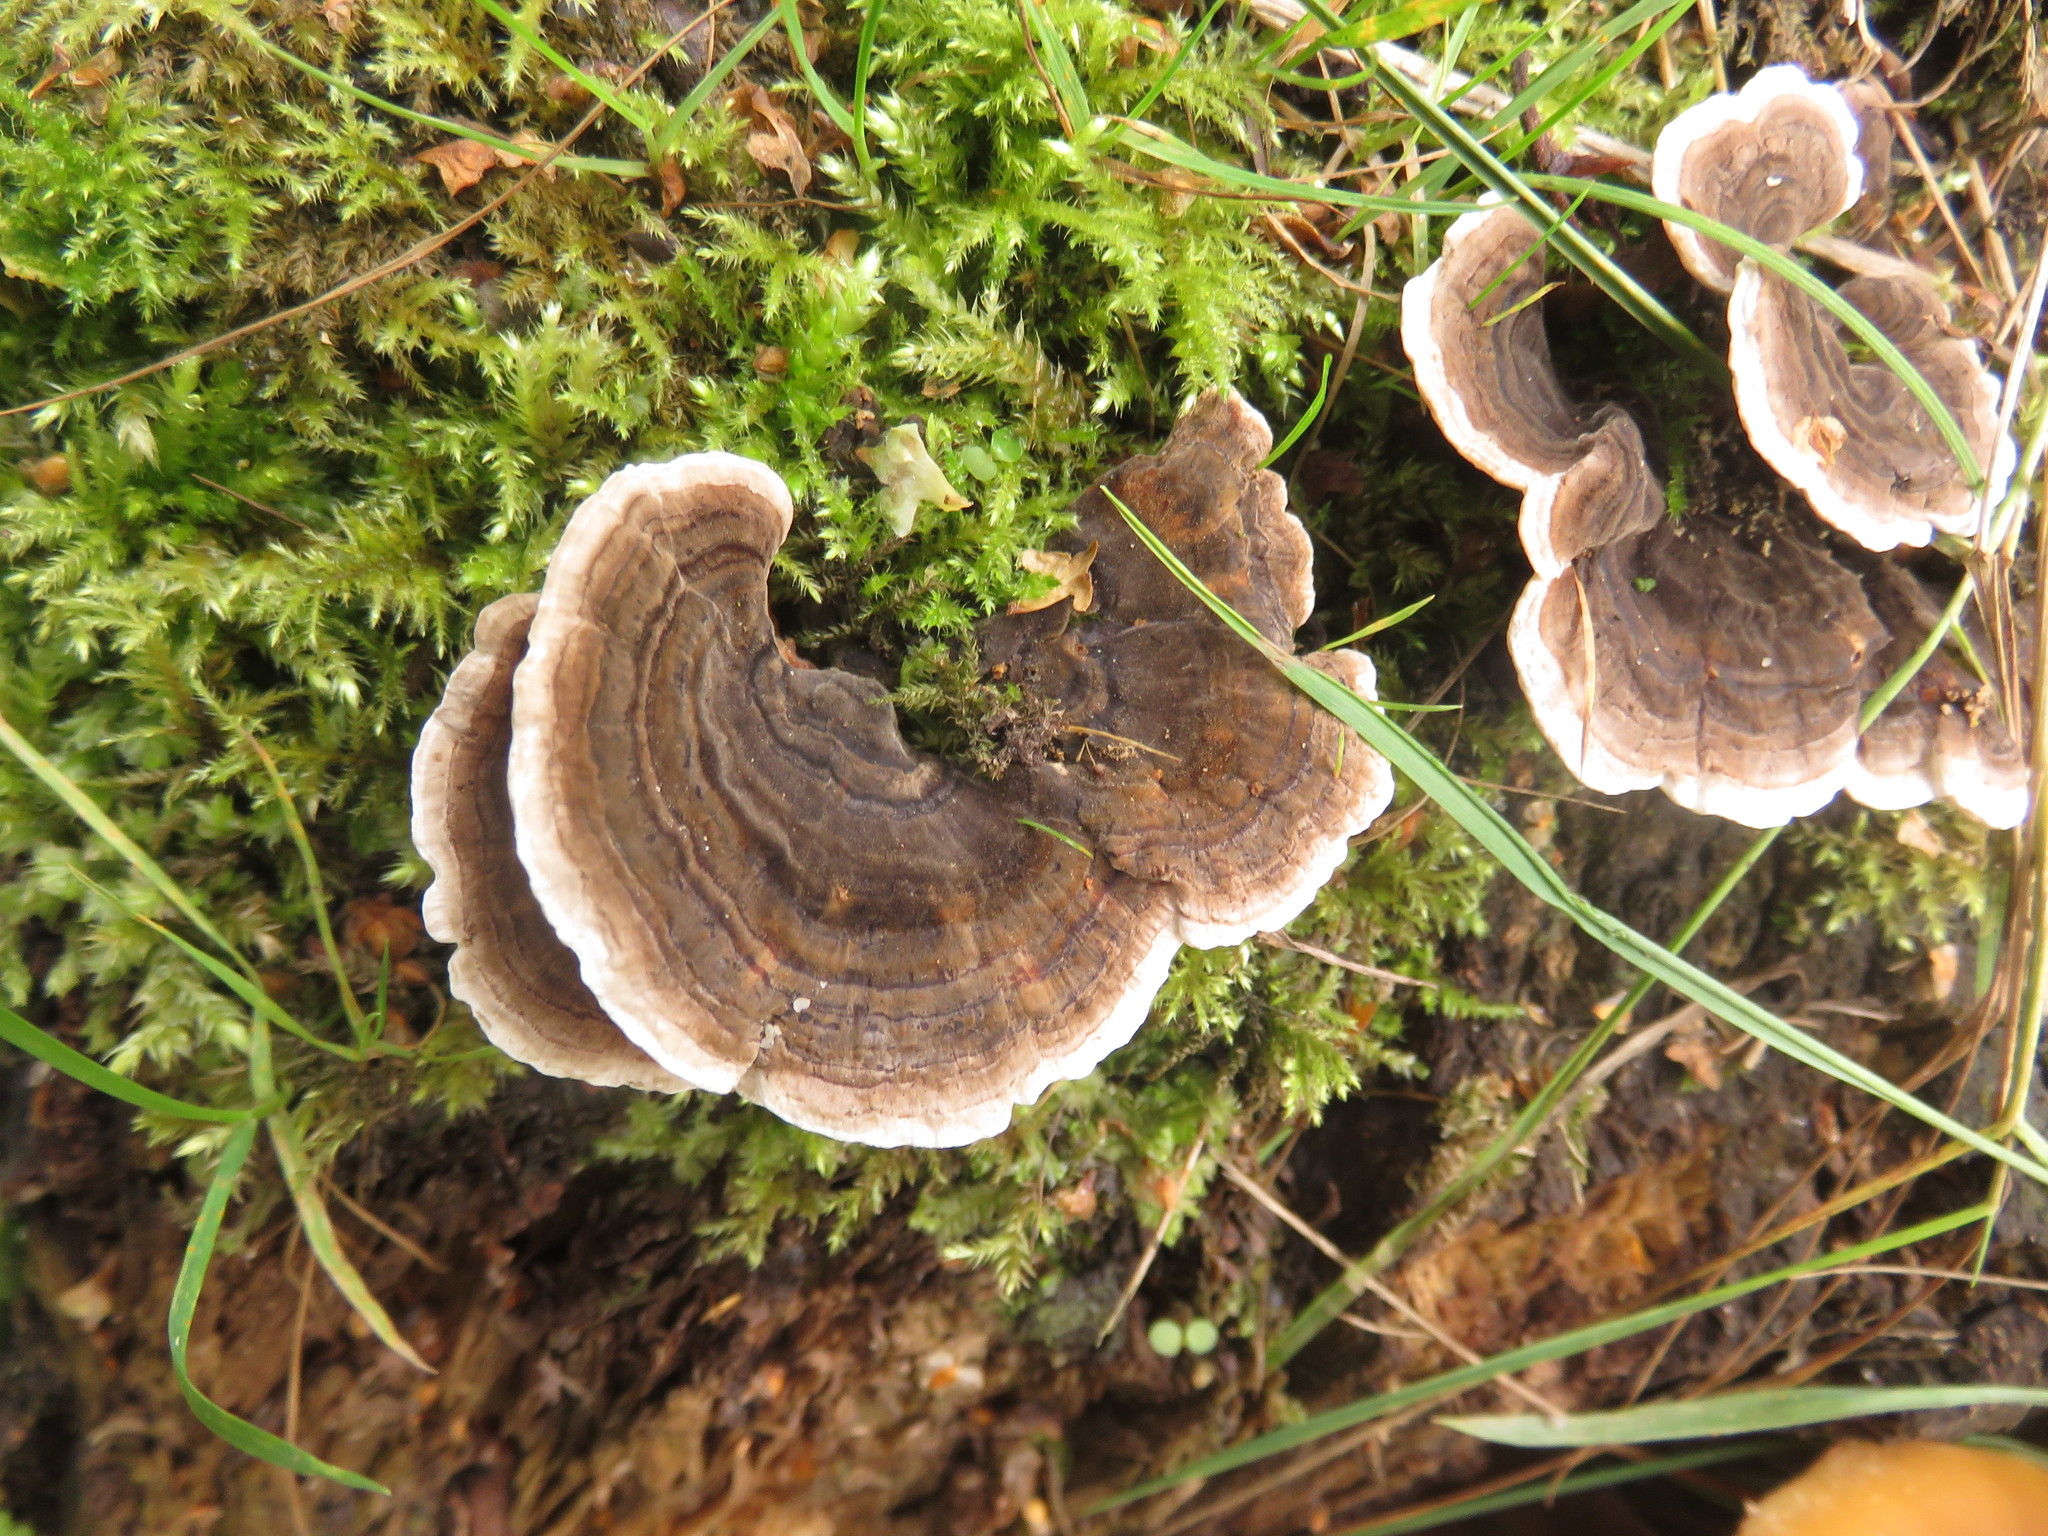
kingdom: Fungi
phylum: Basidiomycota
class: Agaricomycetes
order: Polyporales
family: Polyporaceae
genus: Trametes
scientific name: Trametes versicolor
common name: Turkeytail
